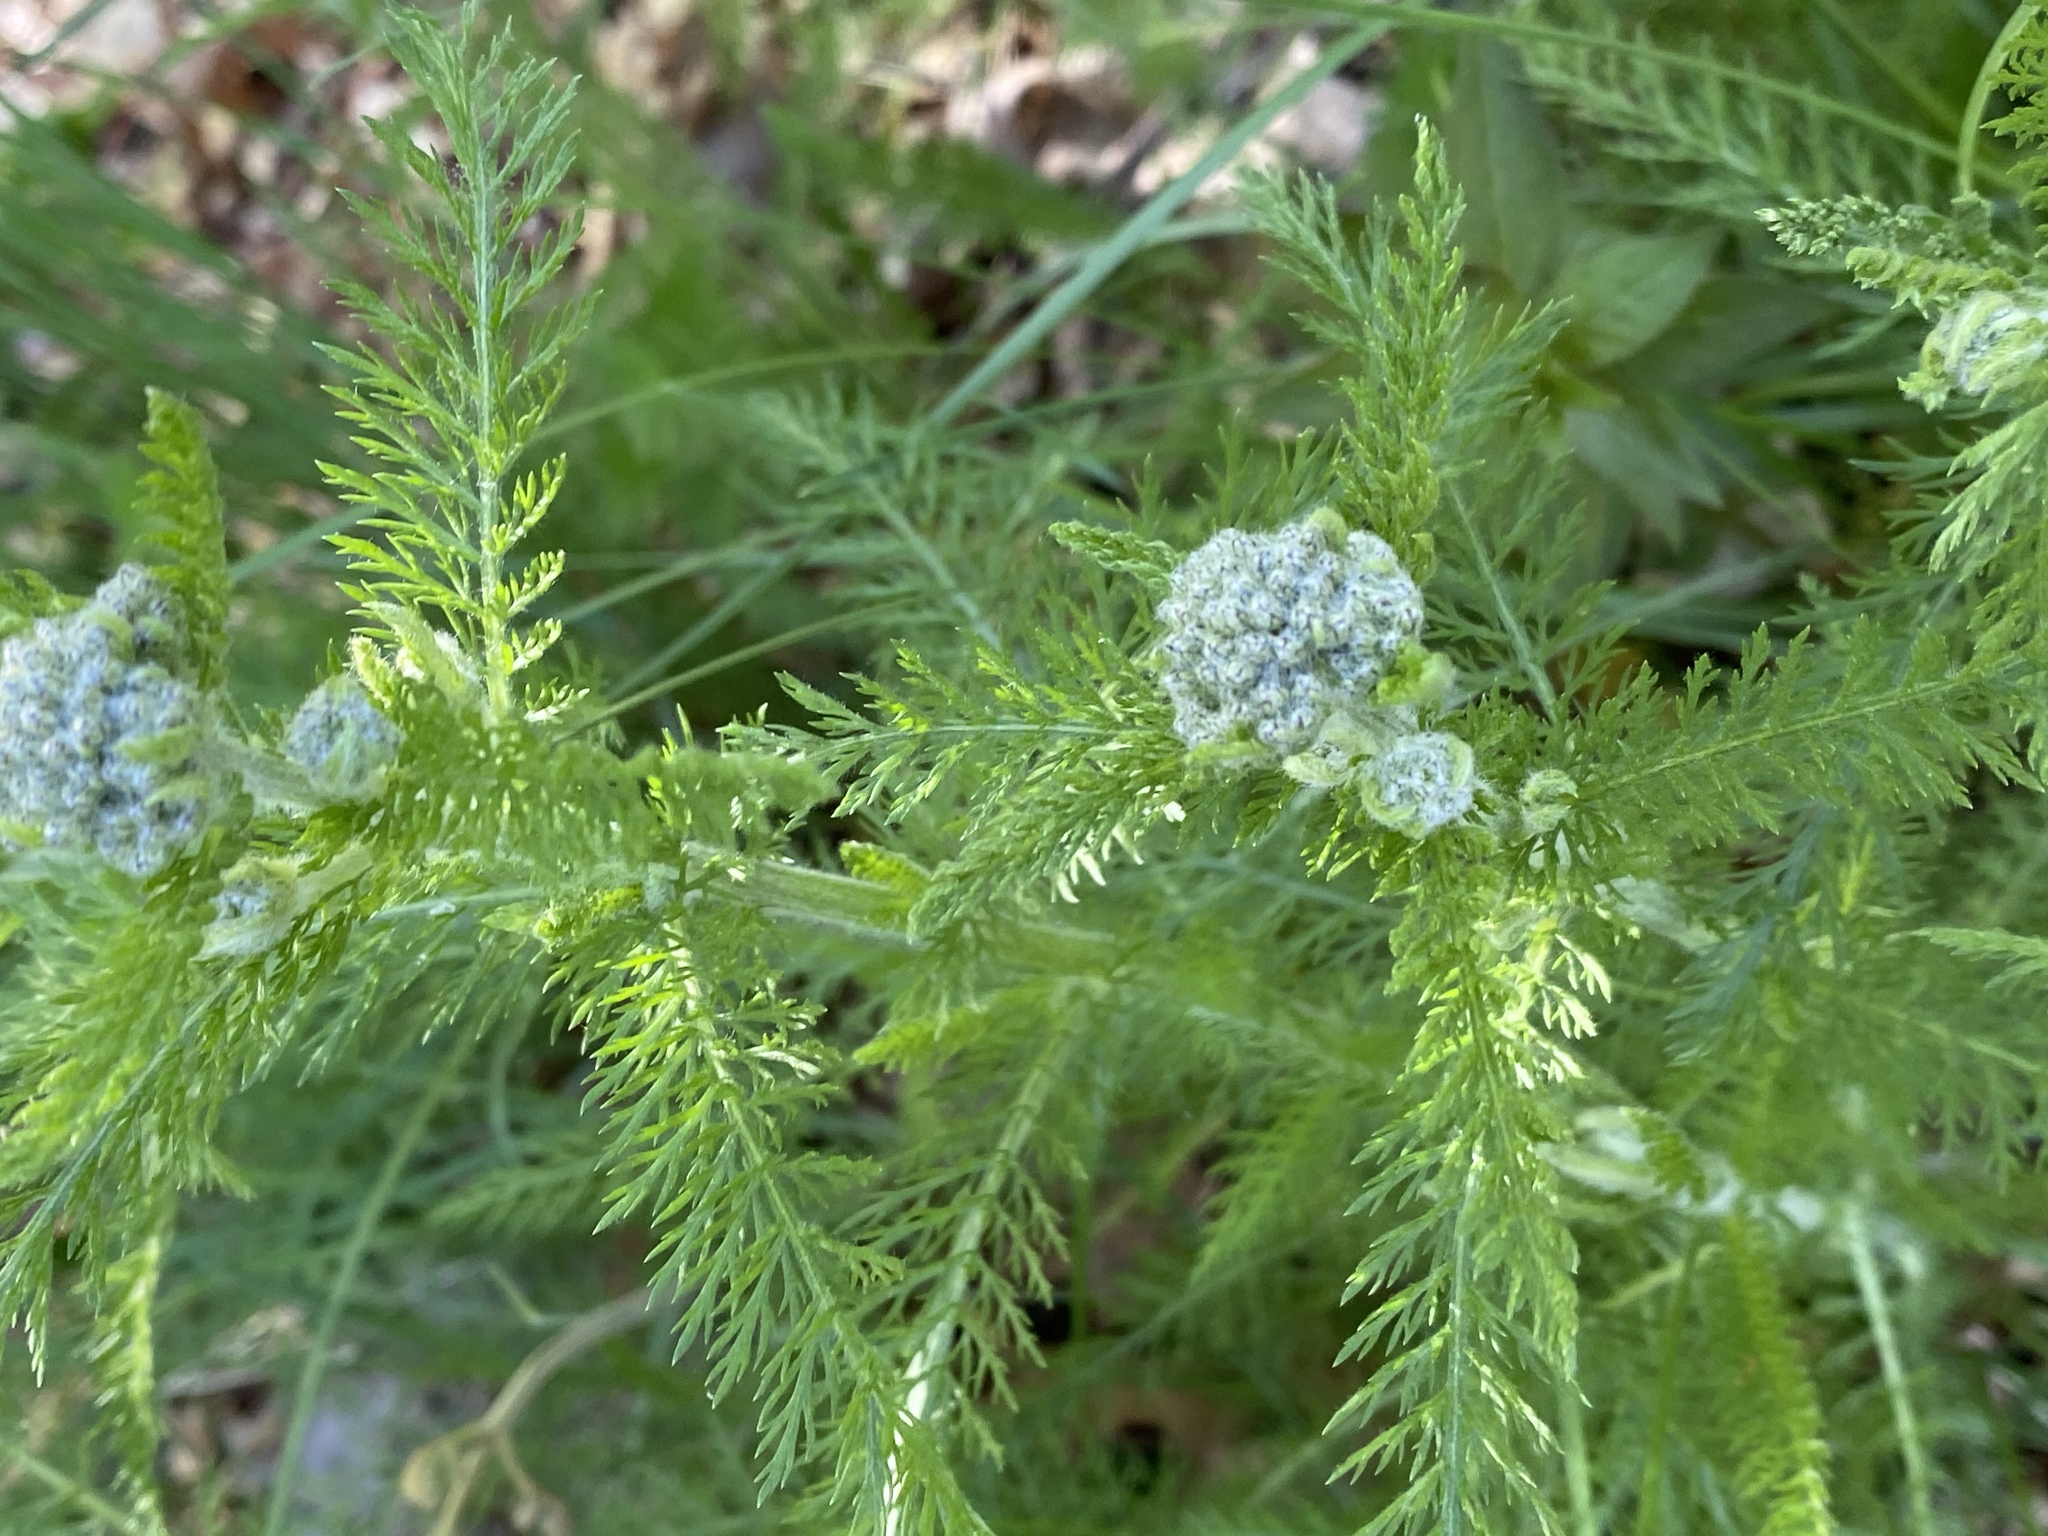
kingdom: Plantae
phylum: Tracheophyta
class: Magnoliopsida
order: Asterales
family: Asteraceae
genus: Achillea
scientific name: Achillea millefolium
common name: Yarrow
